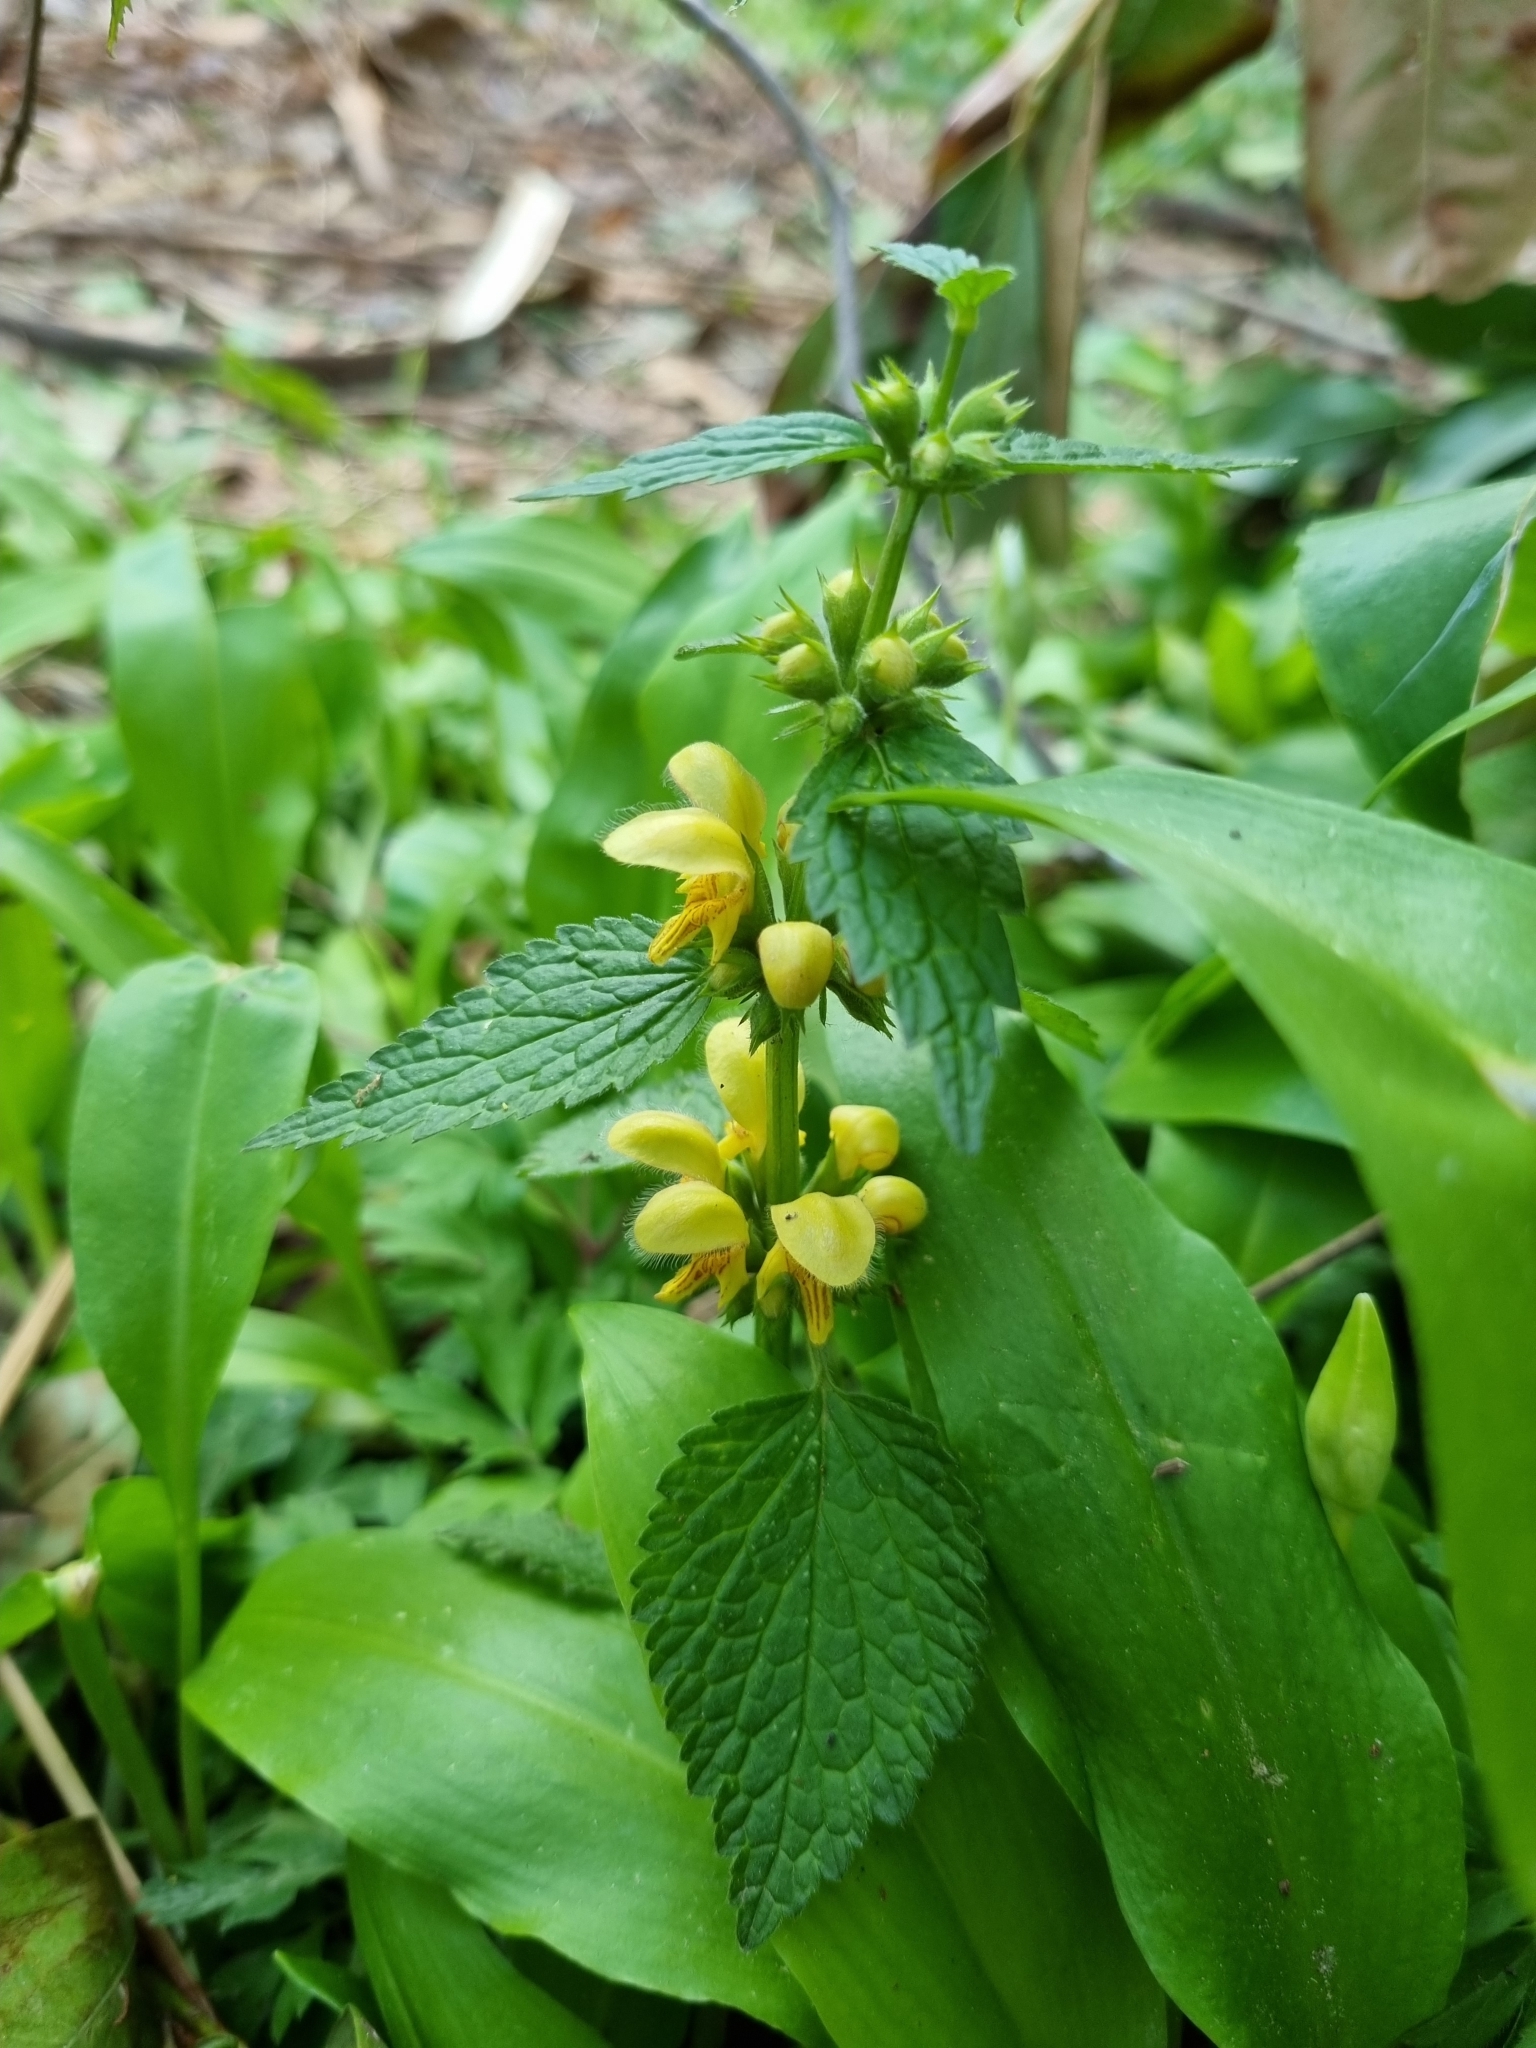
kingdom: Plantae
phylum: Tracheophyta
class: Magnoliopsida
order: Lamiales
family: Lamiaceae
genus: Lamium
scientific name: Lamium galeobdolon
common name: Yellow archangel
